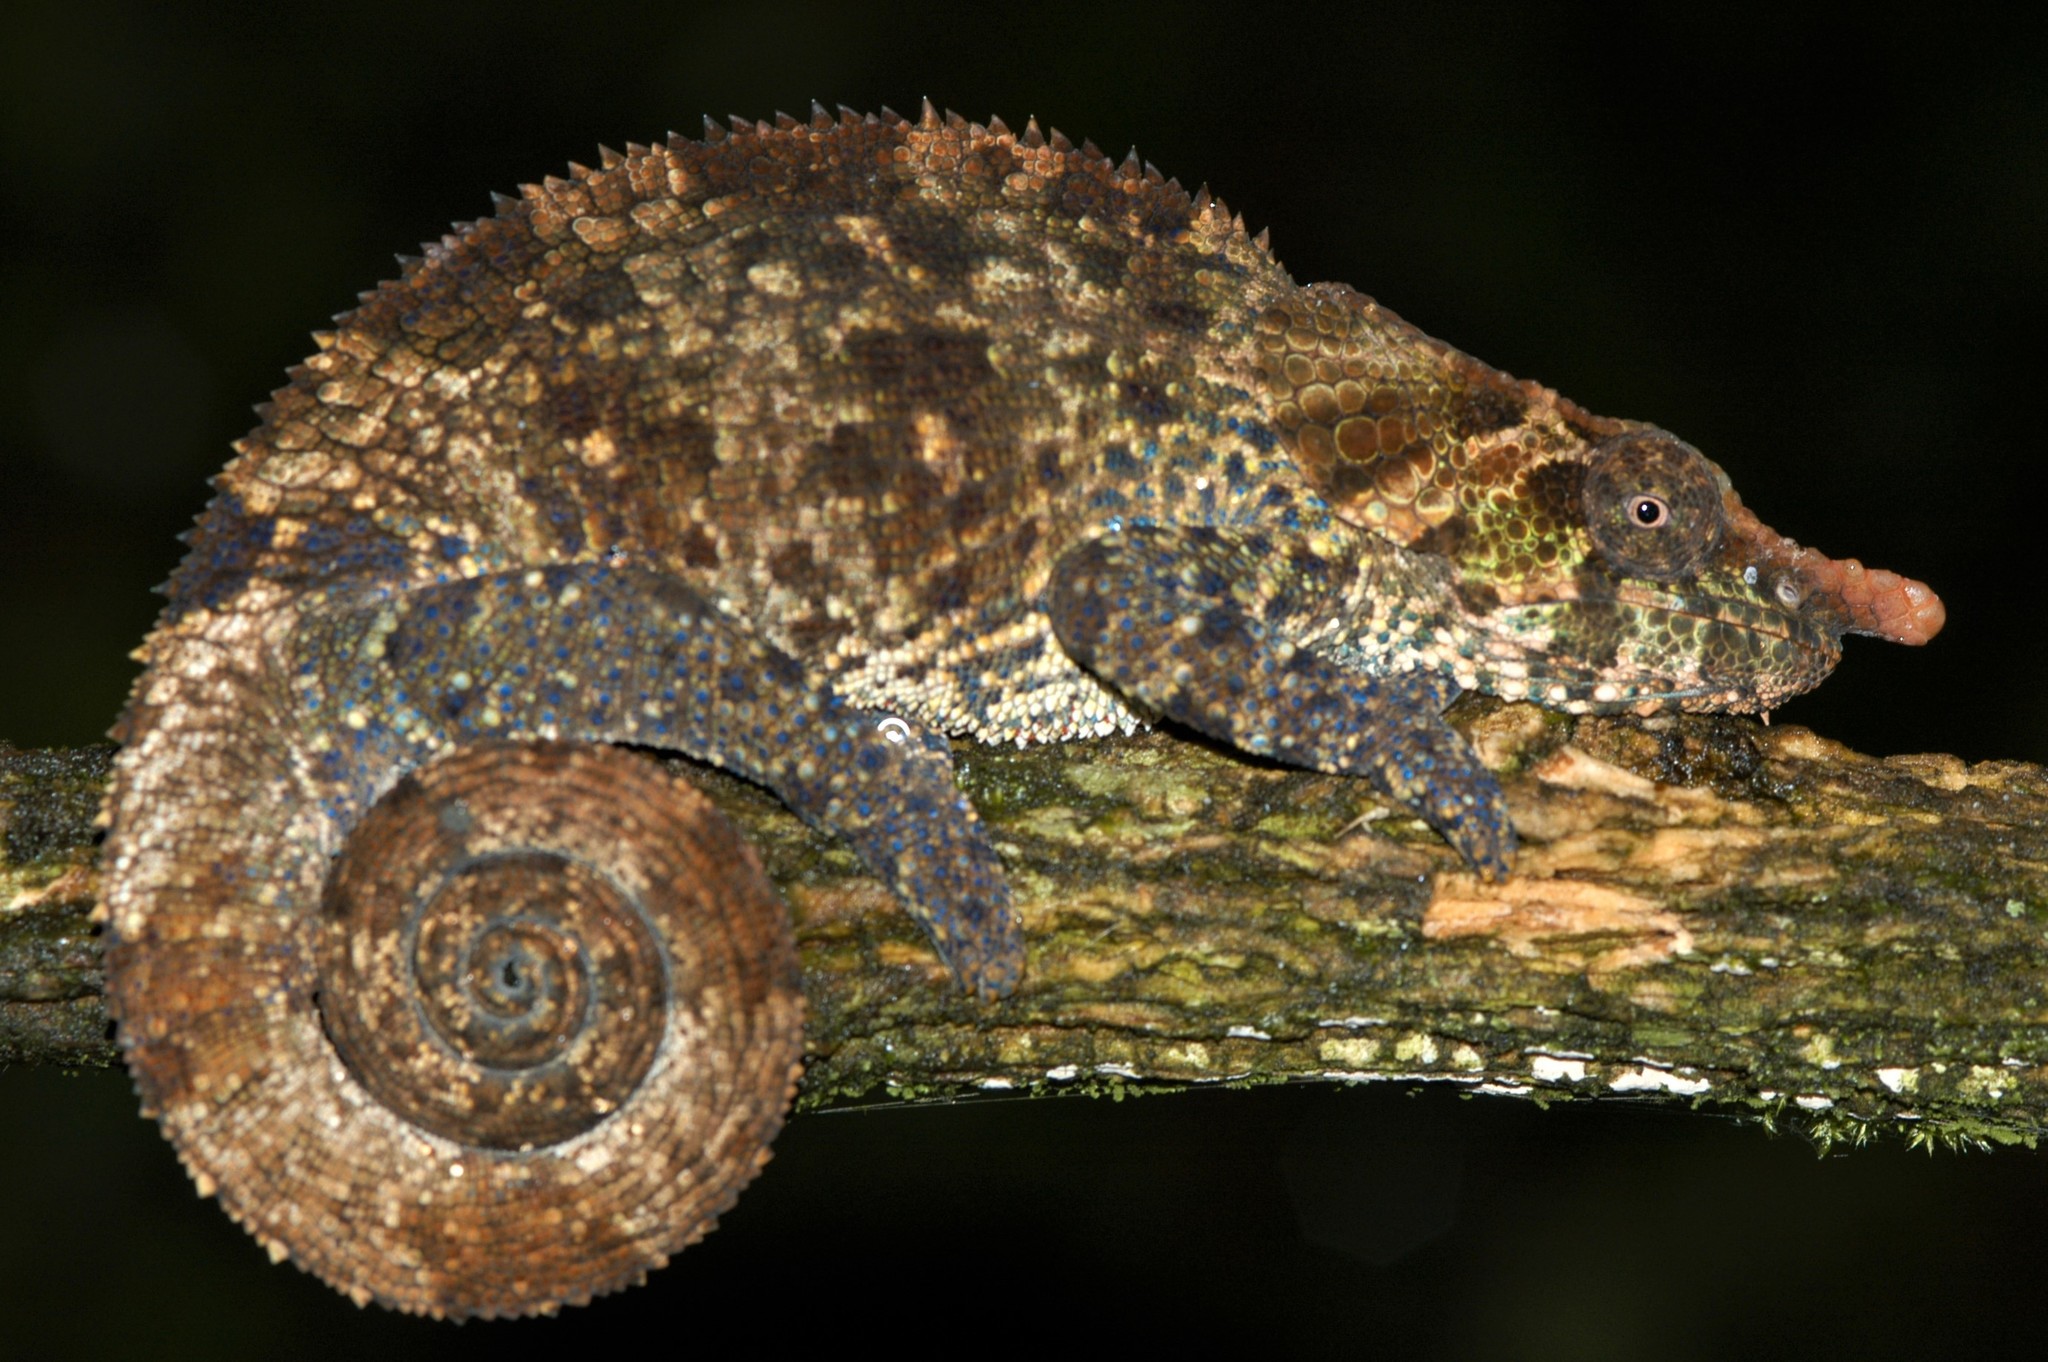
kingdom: Animalia
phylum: Chordata
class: Squamata
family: Chamaeleonidae
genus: Calumma
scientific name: Calumma crypticum
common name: Cryptic chameleon
